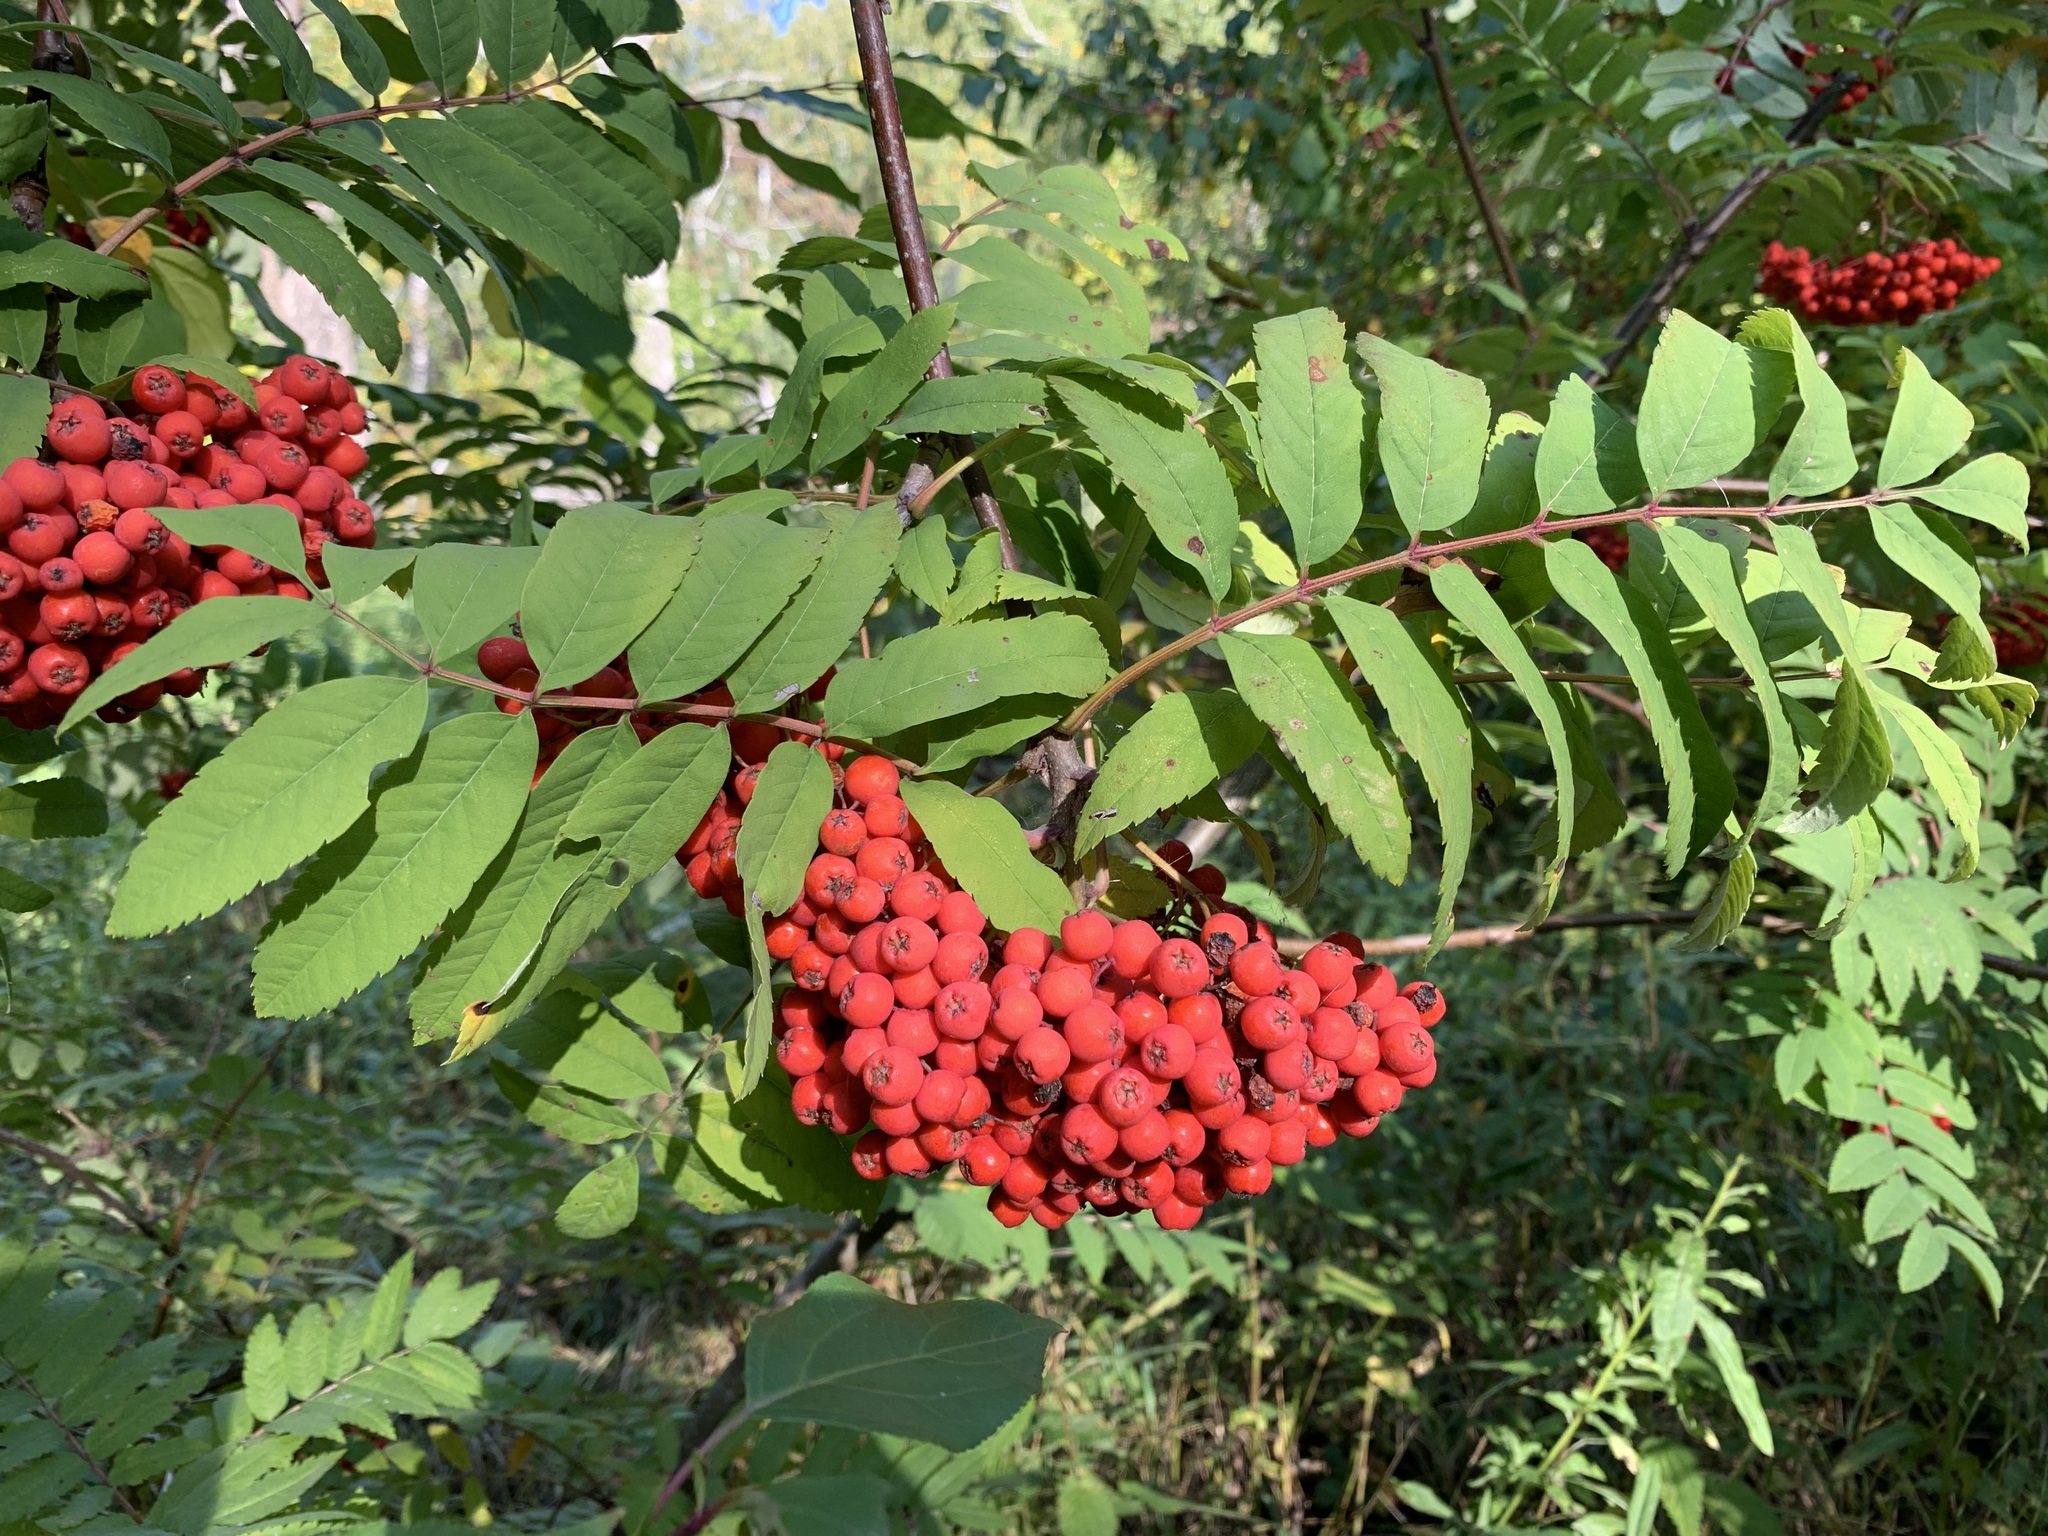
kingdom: Plantae
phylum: Tracheophyta
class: Magnoliopsida
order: Rosales
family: Rosaceae
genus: Sorbus
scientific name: Sorbus aucuparia
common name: Rowan
